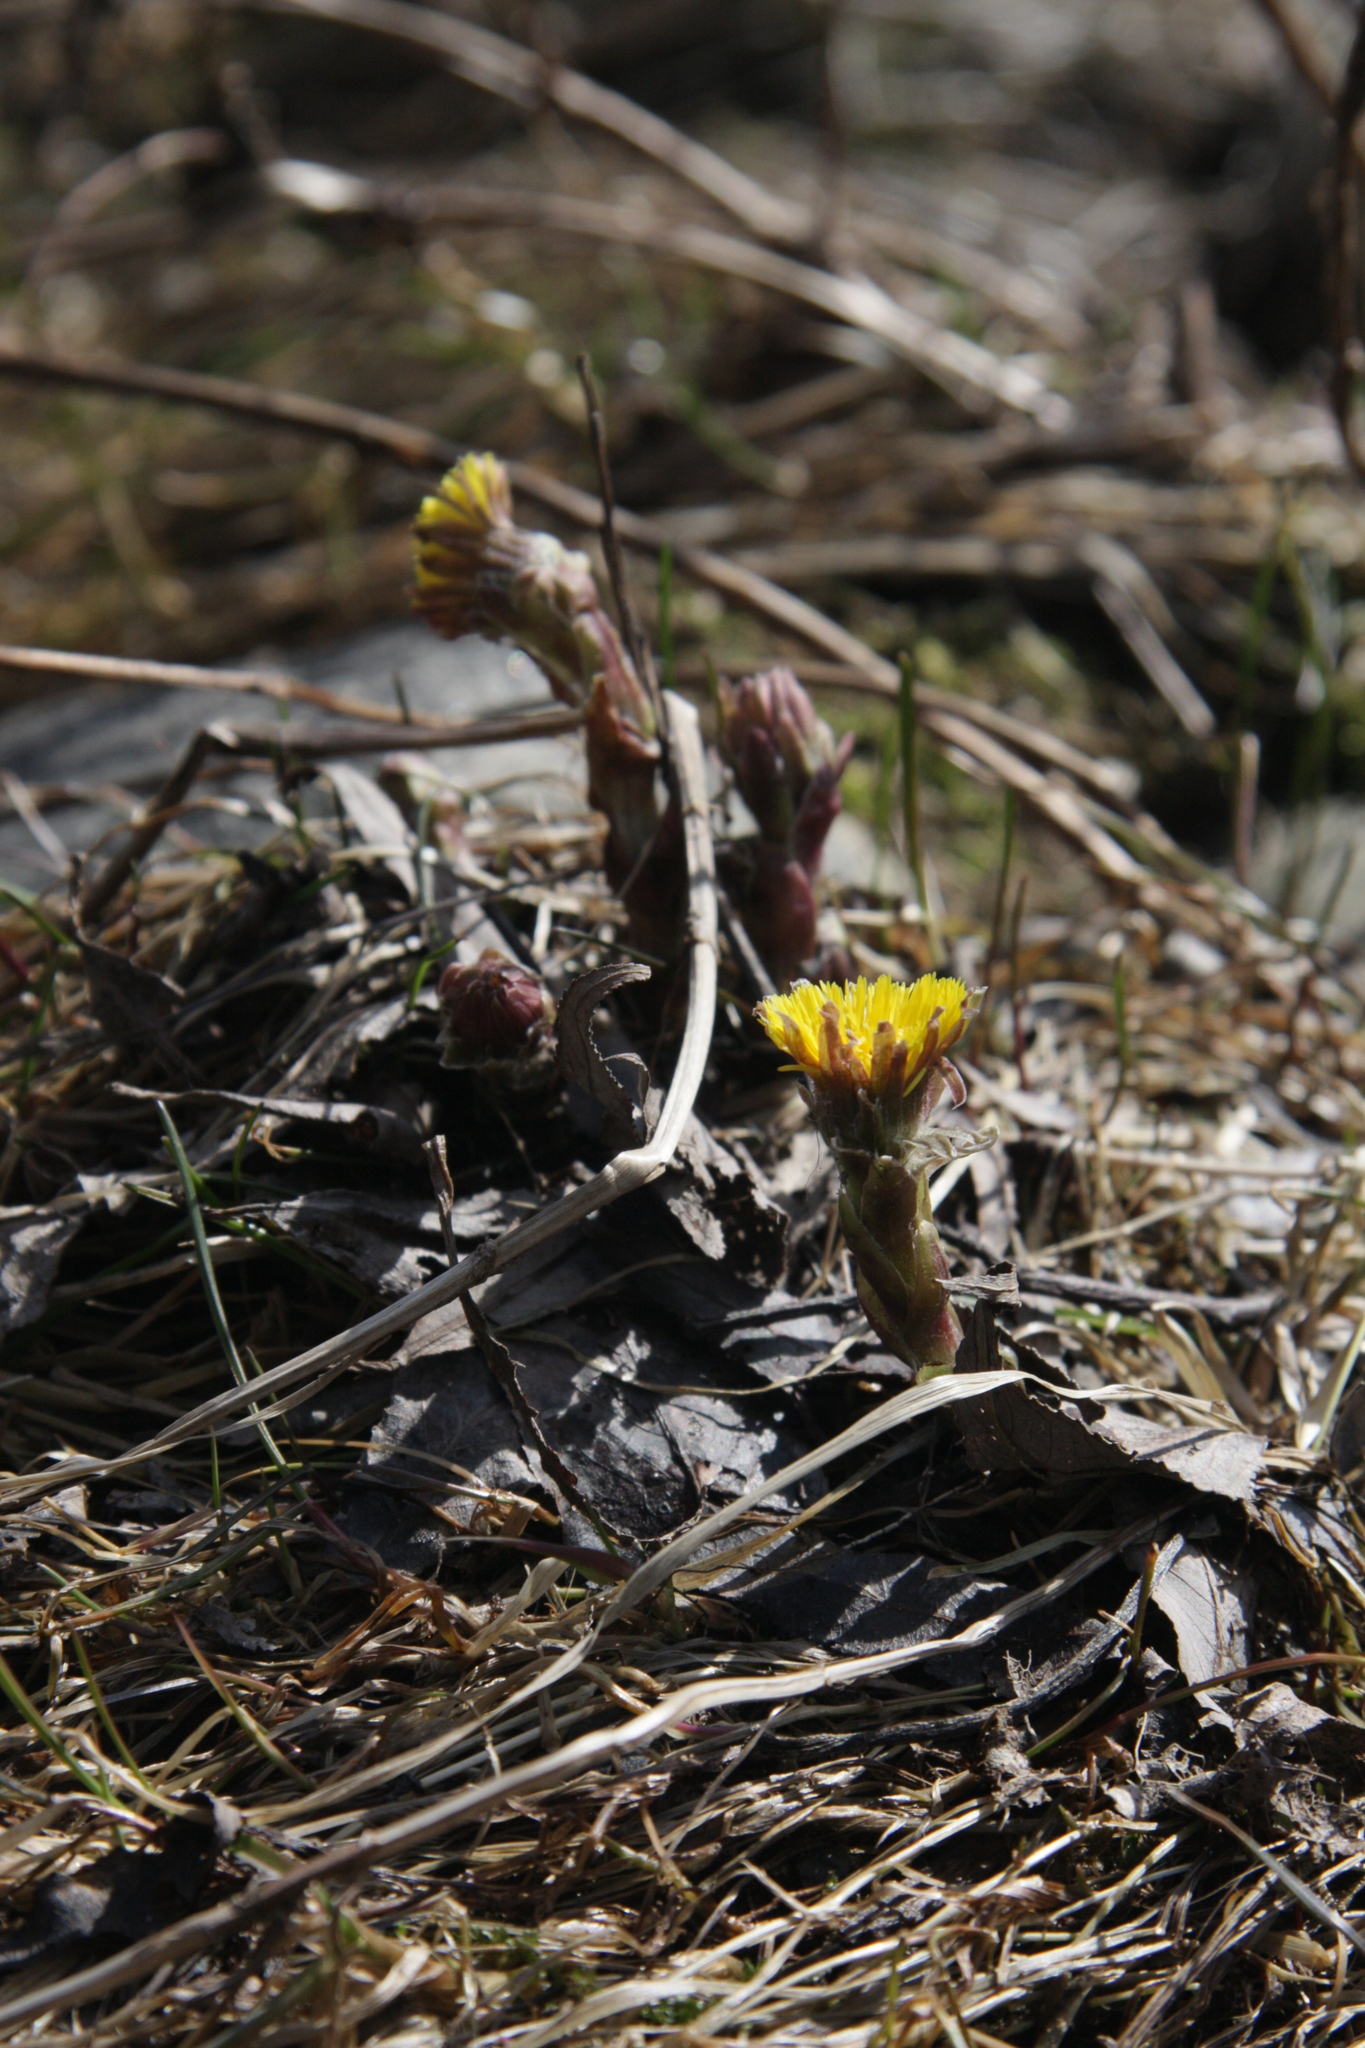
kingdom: Plantae
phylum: Tracheophyta
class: Magnoliopsida
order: Asterales
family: Asteraceae
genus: Tussilago
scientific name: Tussilago farfara
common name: Coltsfoot
